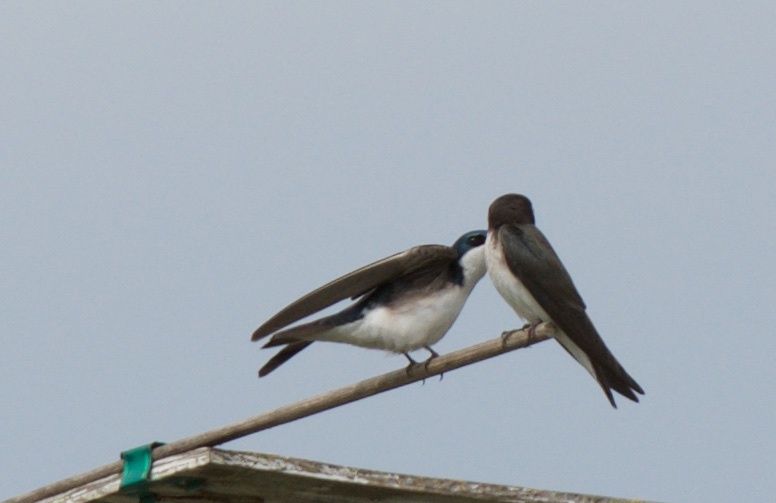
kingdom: Animalia
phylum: Chordata
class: Aves
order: Passeriformes
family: Hirundinidae
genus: Tachycineta
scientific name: Tachycineta bicolor
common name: Tree swallow
